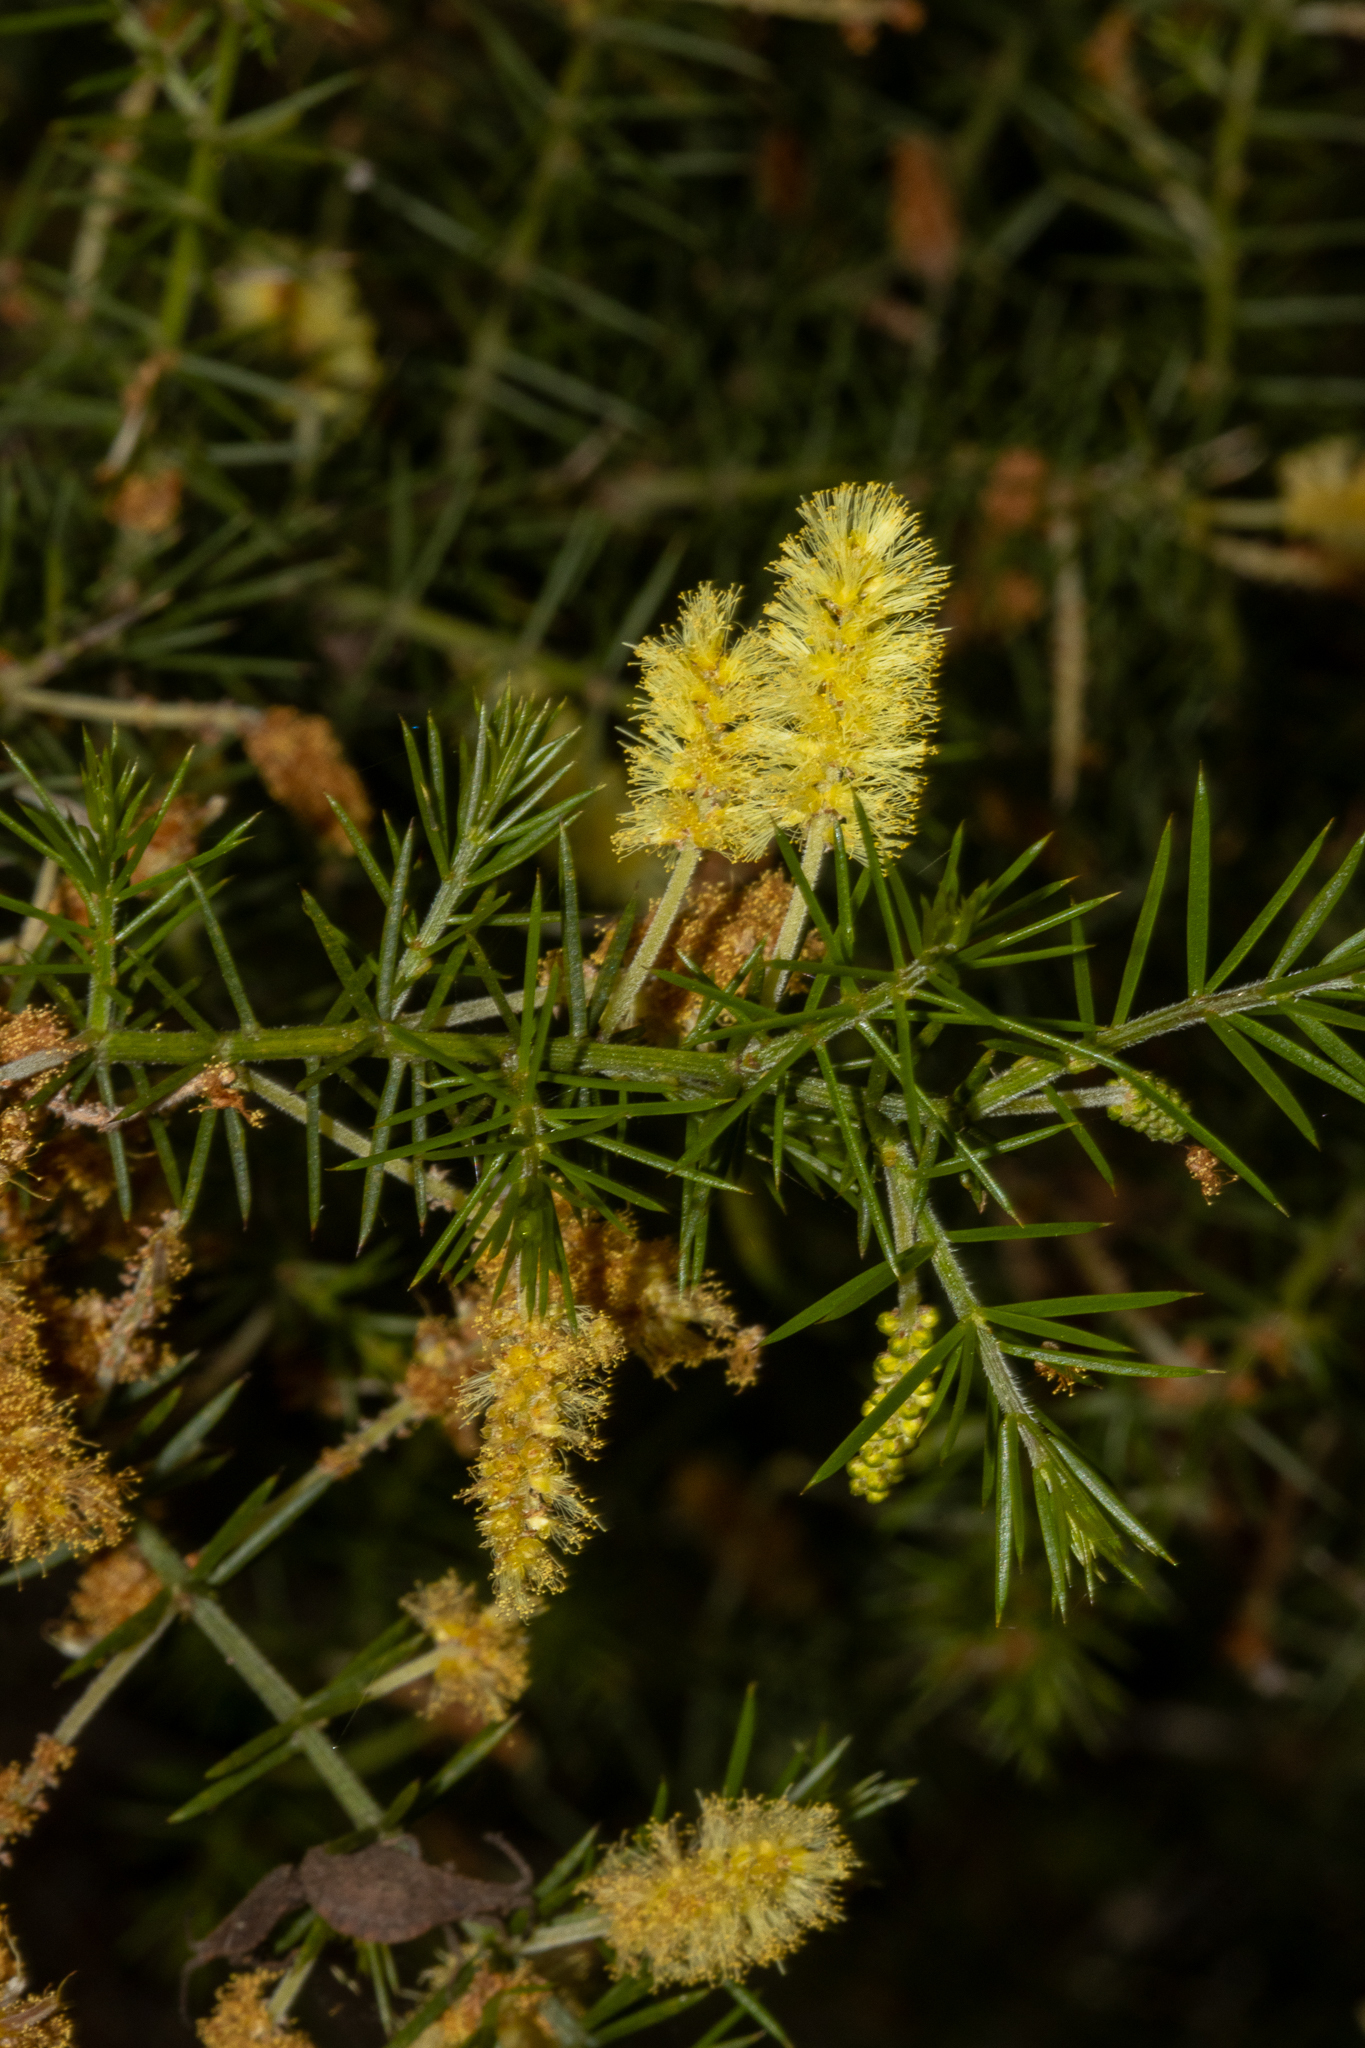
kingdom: Plantae
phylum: Tracheophyta
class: Magnoliopsida
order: Fabales
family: Fabaceae
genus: Acacia
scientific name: Acacia verticillata
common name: Prickly moses
